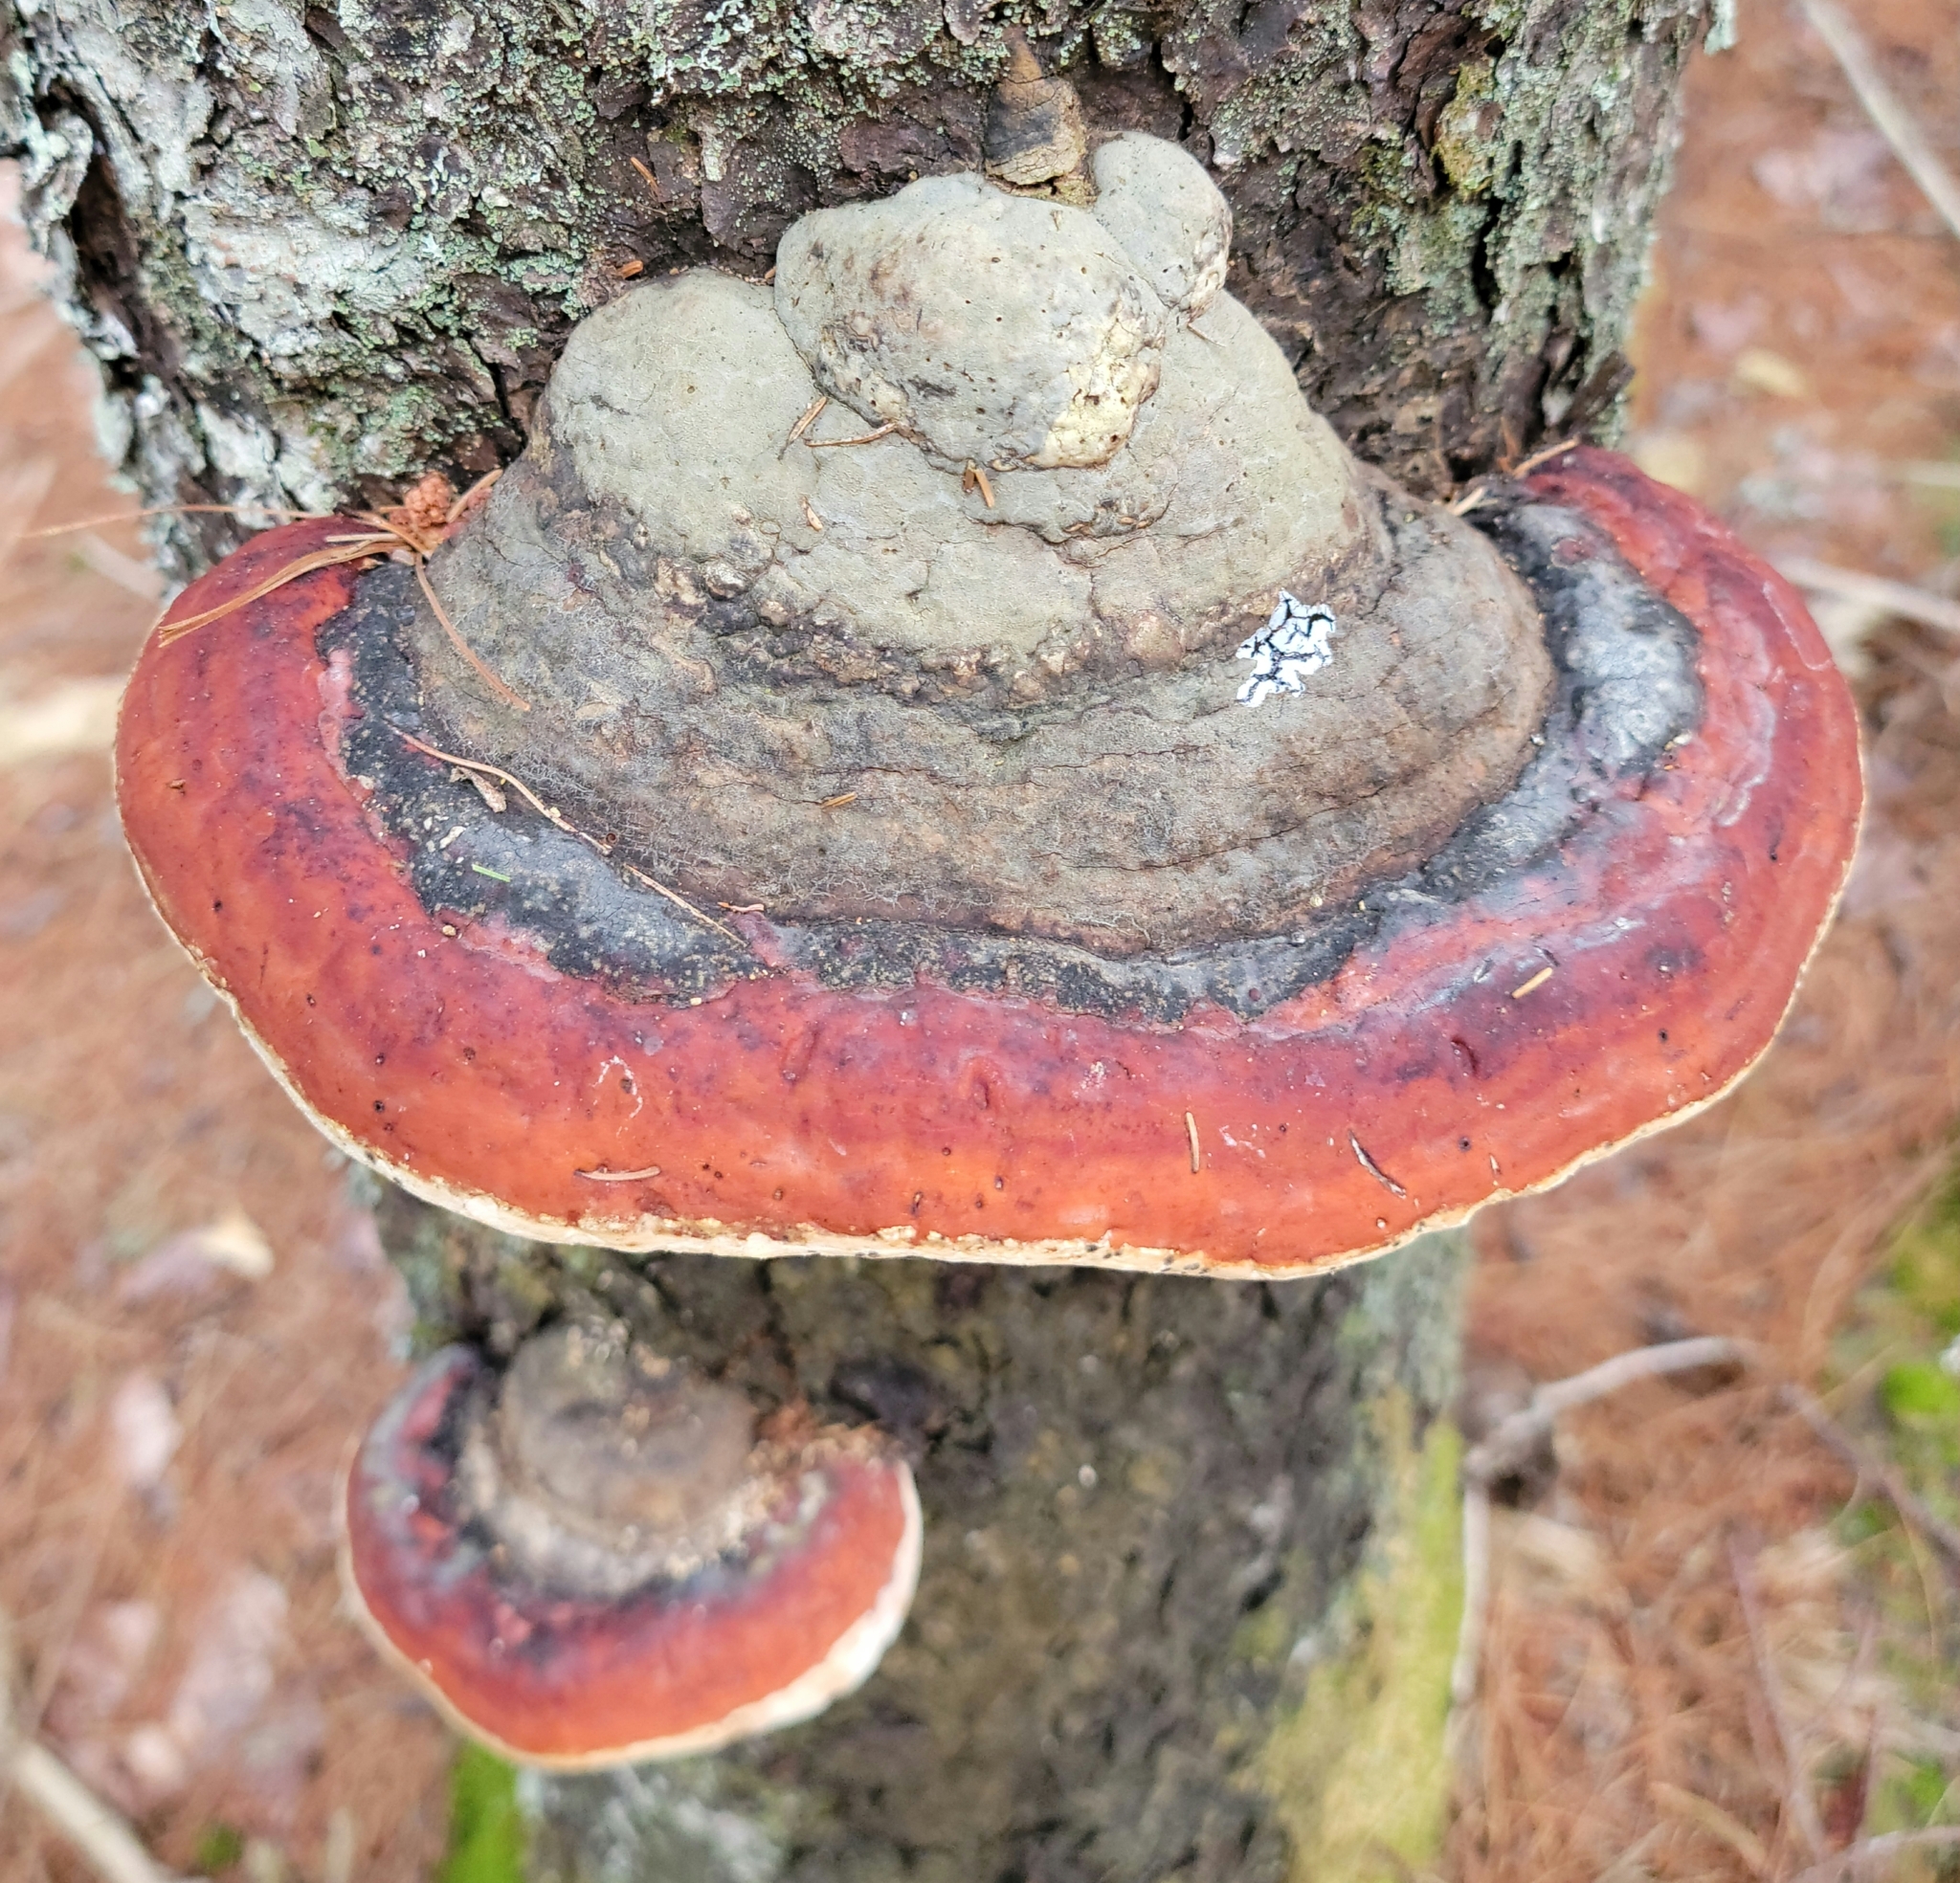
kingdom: Fungi
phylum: Basidiomycota
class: Agaricomycetes
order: Polyporales
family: Fomitopsidaceae
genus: Fomitopsis
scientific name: Fomitopsis mounceae
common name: Northern red belt
